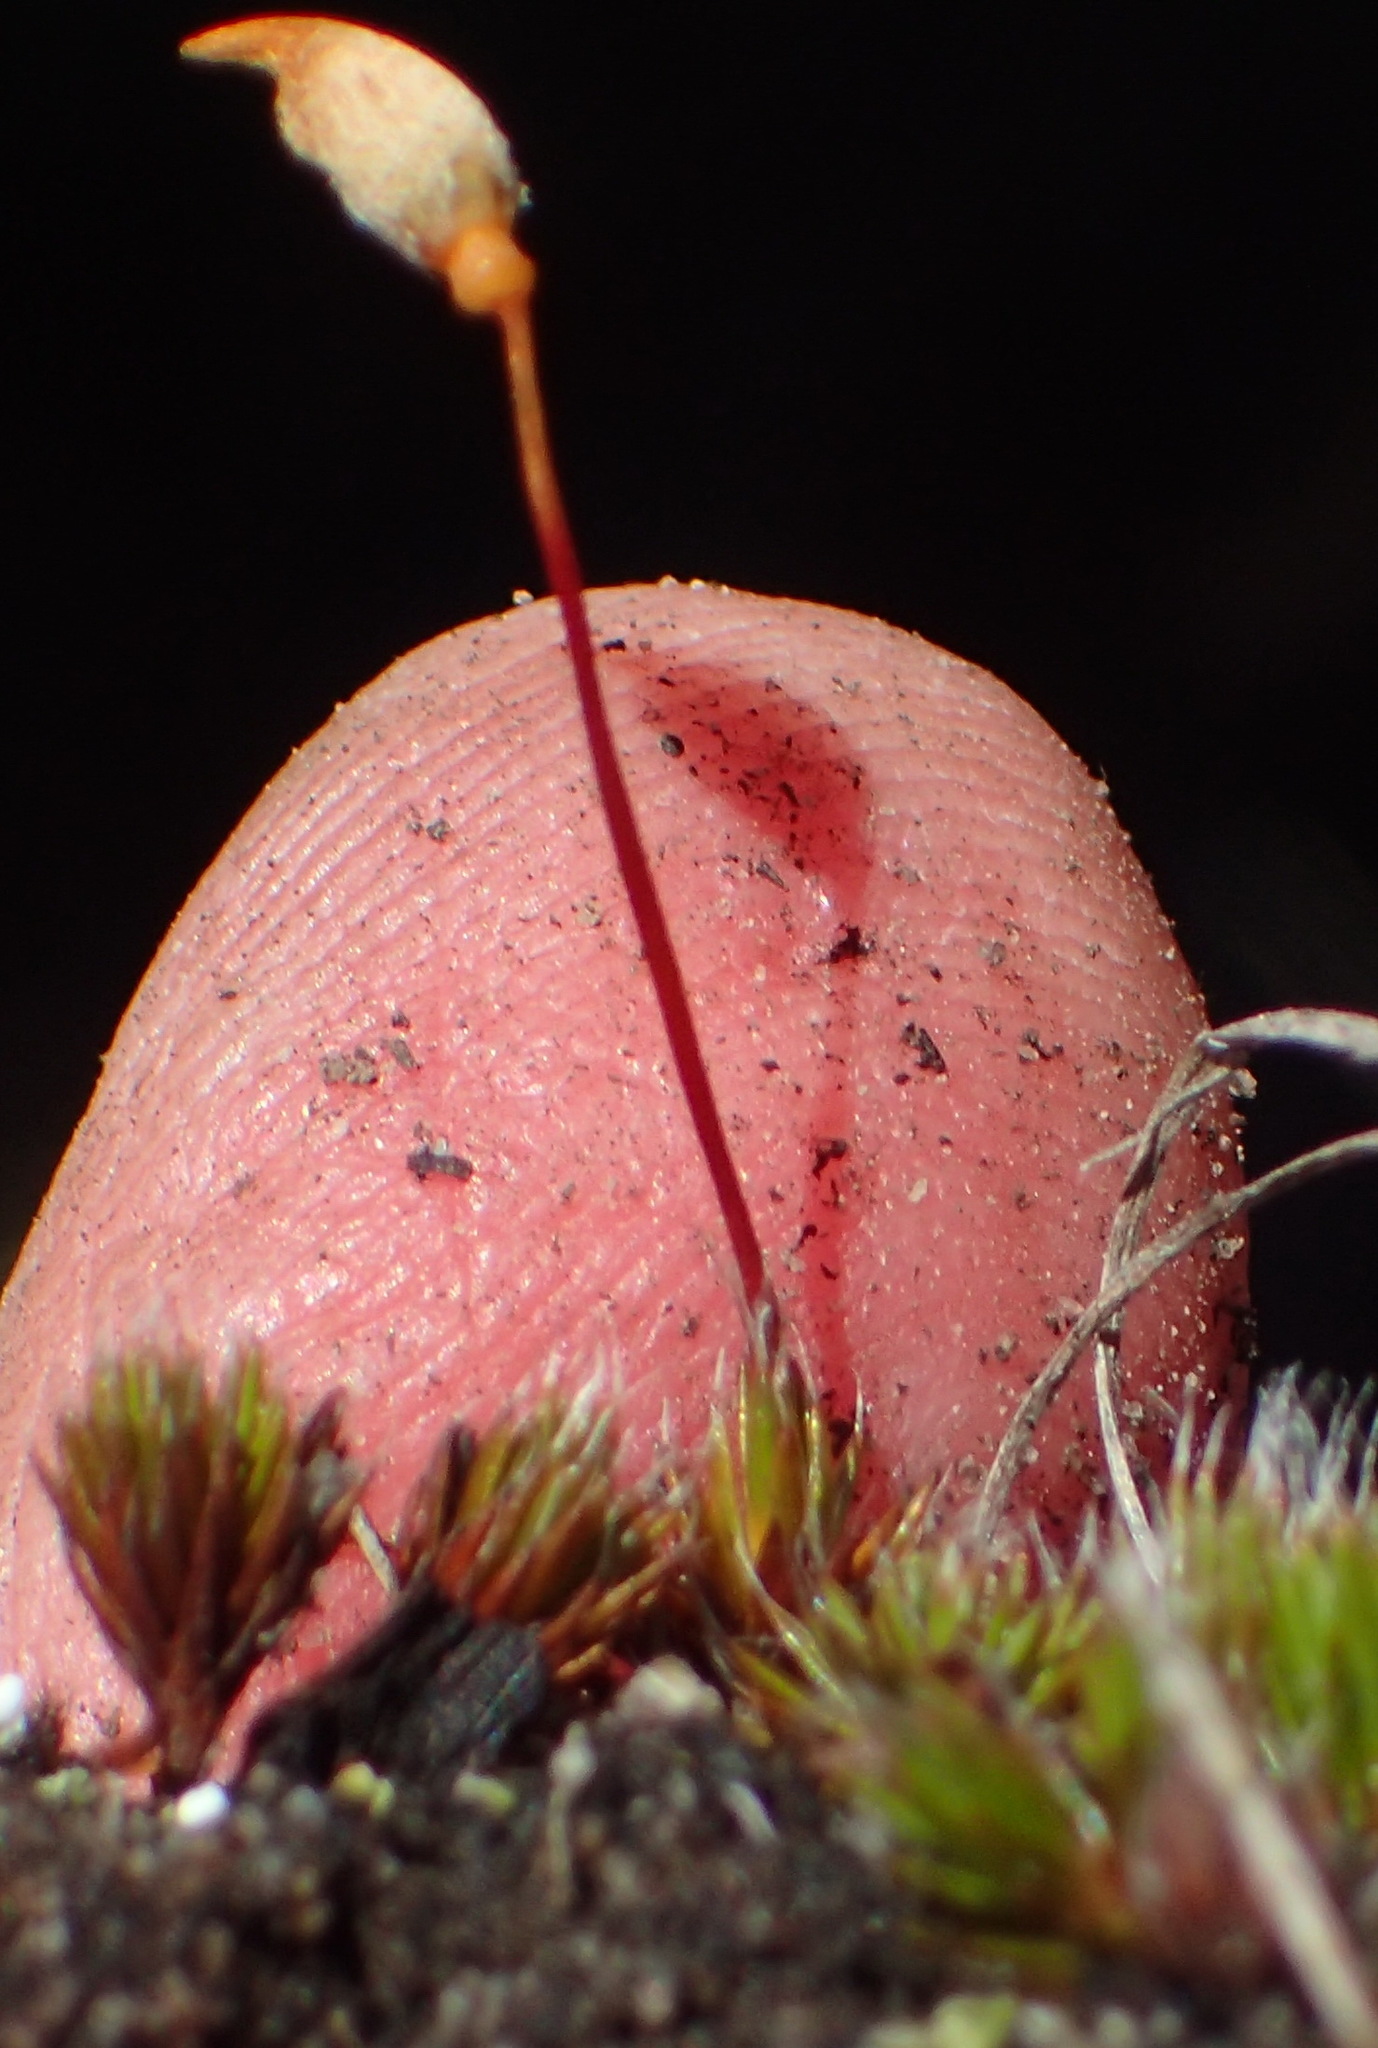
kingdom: Plantae
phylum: Bryophyta
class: Polytrichopsida
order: Polytrichales
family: Polytrichaceae
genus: Polytrichum
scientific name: Polytrichum piliferum
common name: Bristly haircap
